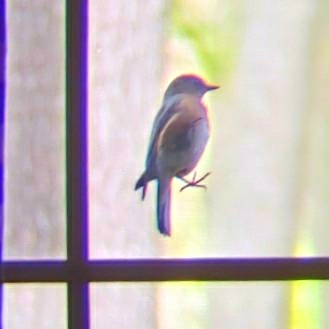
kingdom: Animalia
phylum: Chordata
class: Aves
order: Passeriformes
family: Turdidae
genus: Sialia
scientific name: Sialia sialis
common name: Eastern bluebird
